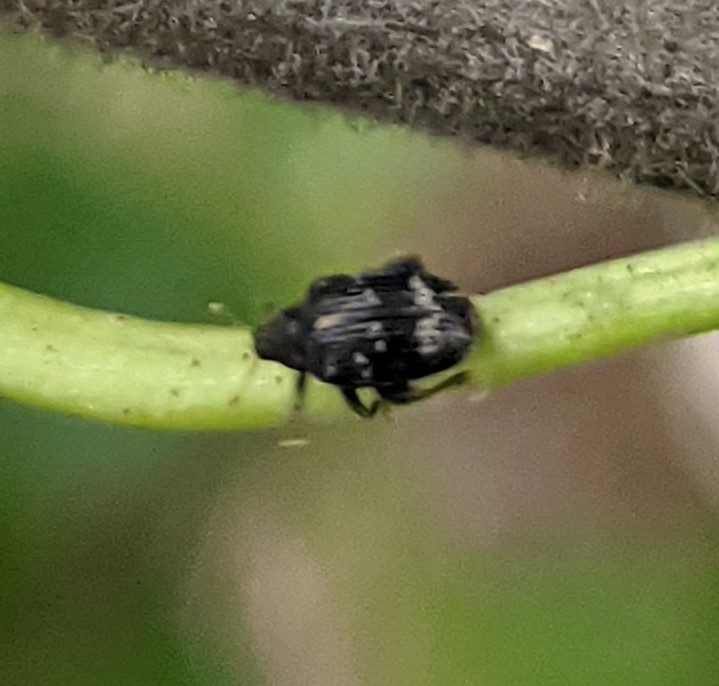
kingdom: Animalia
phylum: Arthropoda
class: Insecta
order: Coleoptera
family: Curculionidae
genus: Orchestes
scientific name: Orchestes rusci
